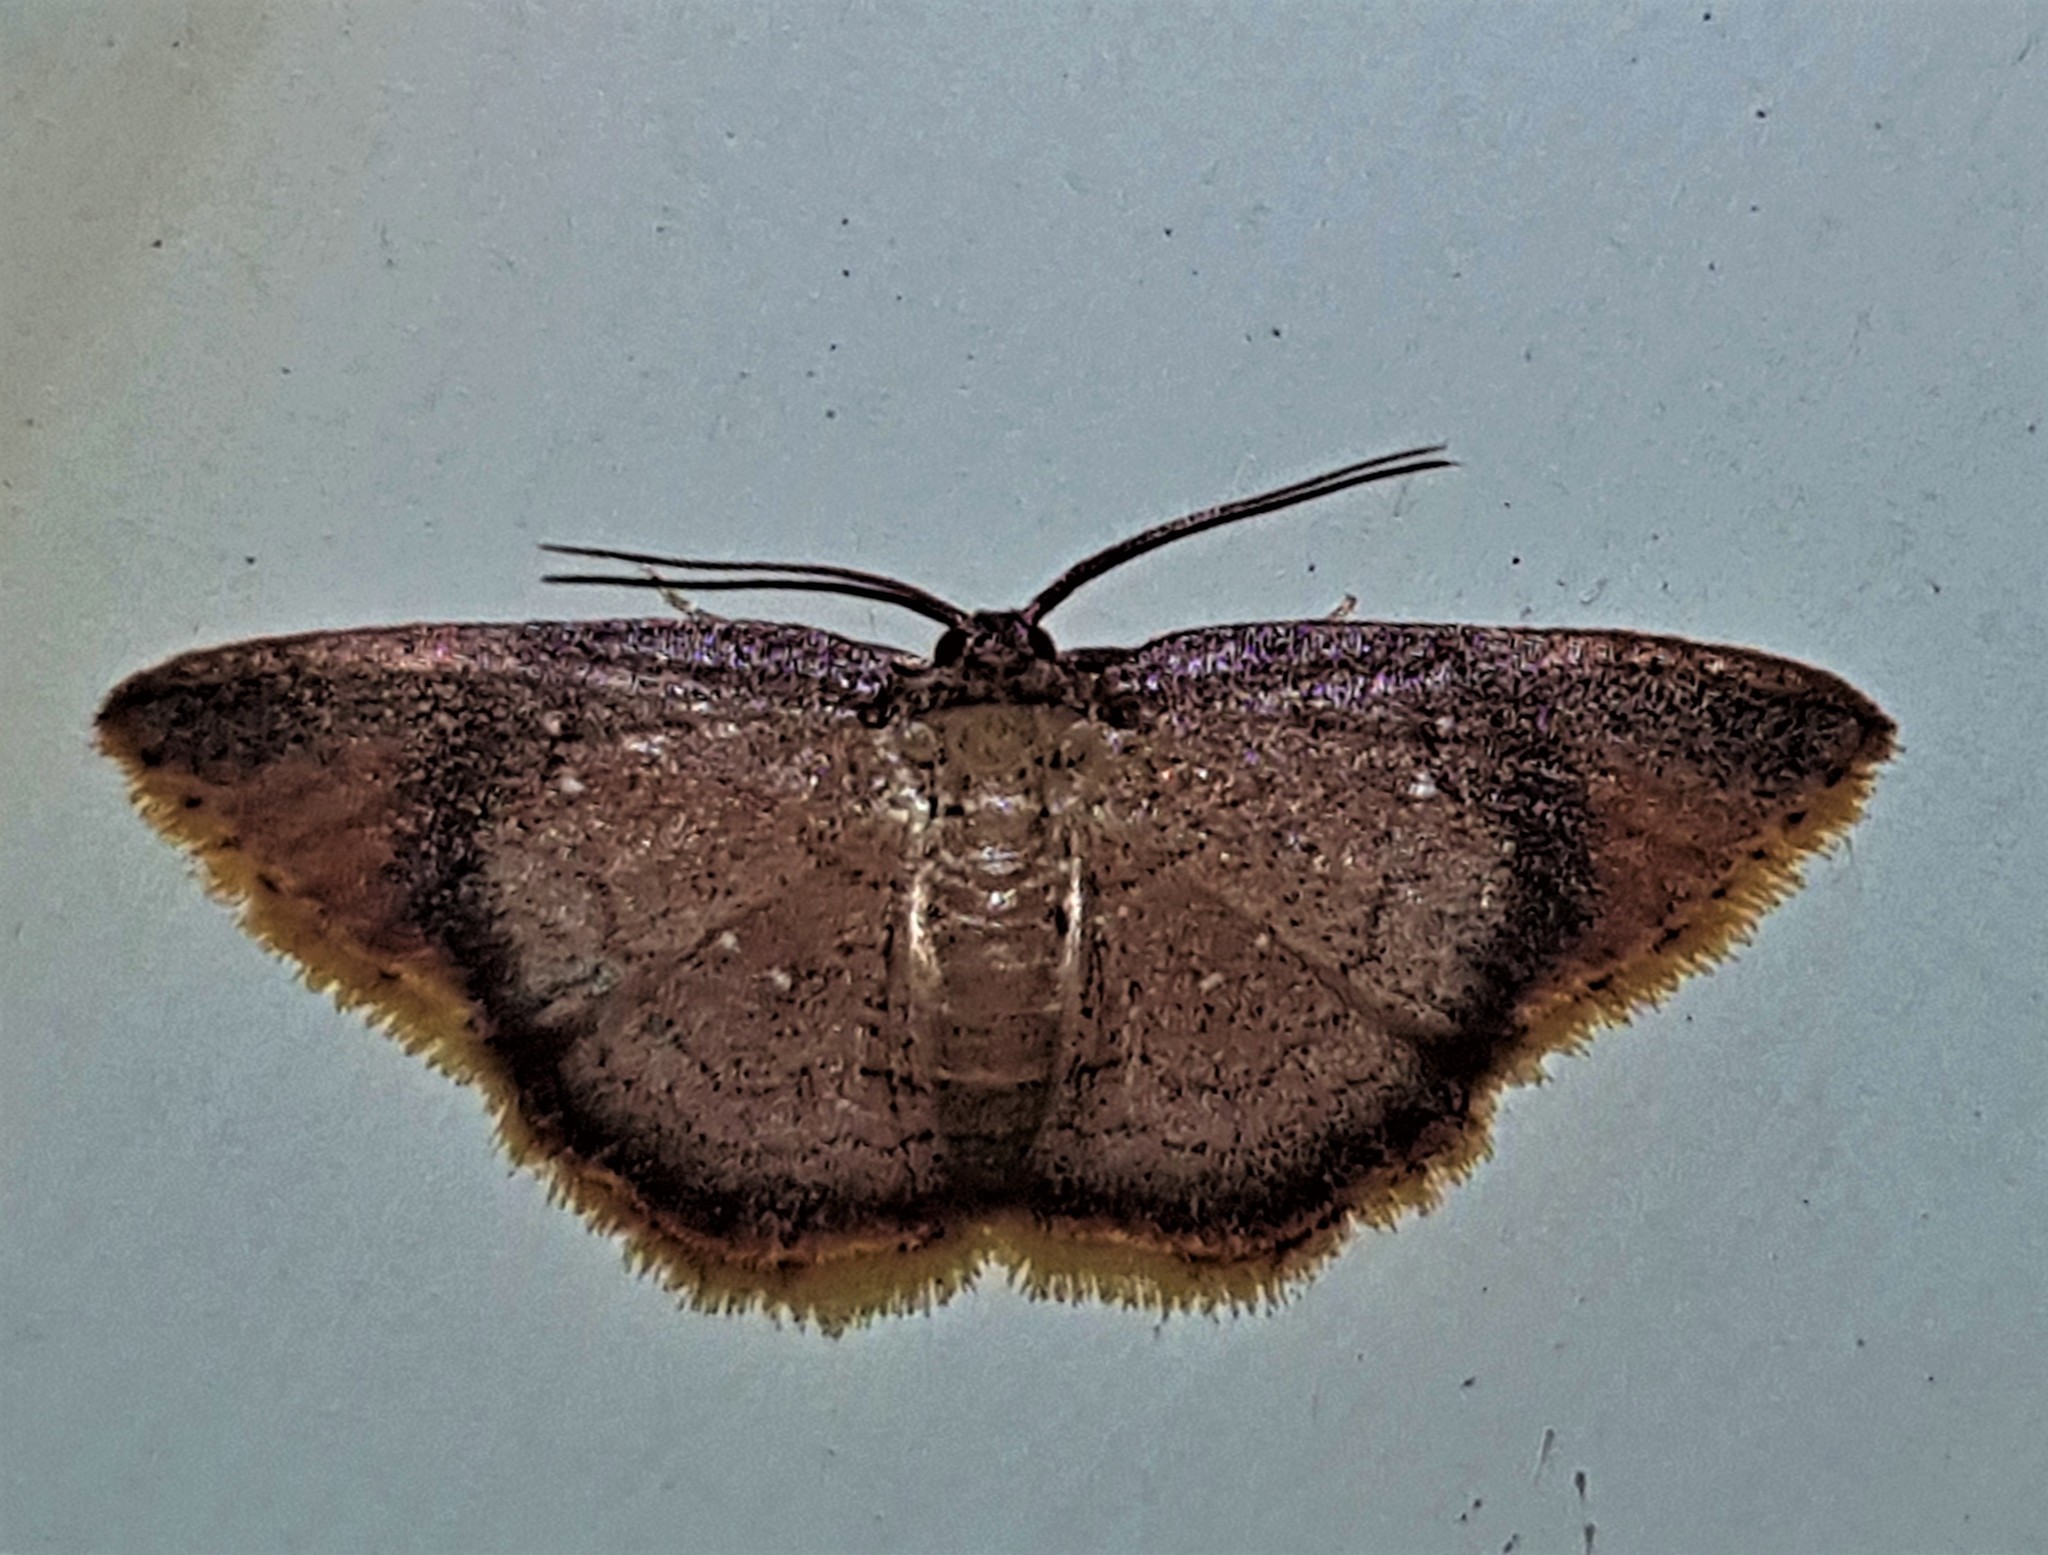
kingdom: Animalia
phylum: Arthropoda
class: Insecta
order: Lepidoptera
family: Geometridae
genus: Tricentra
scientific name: Tricentra albiguttata
